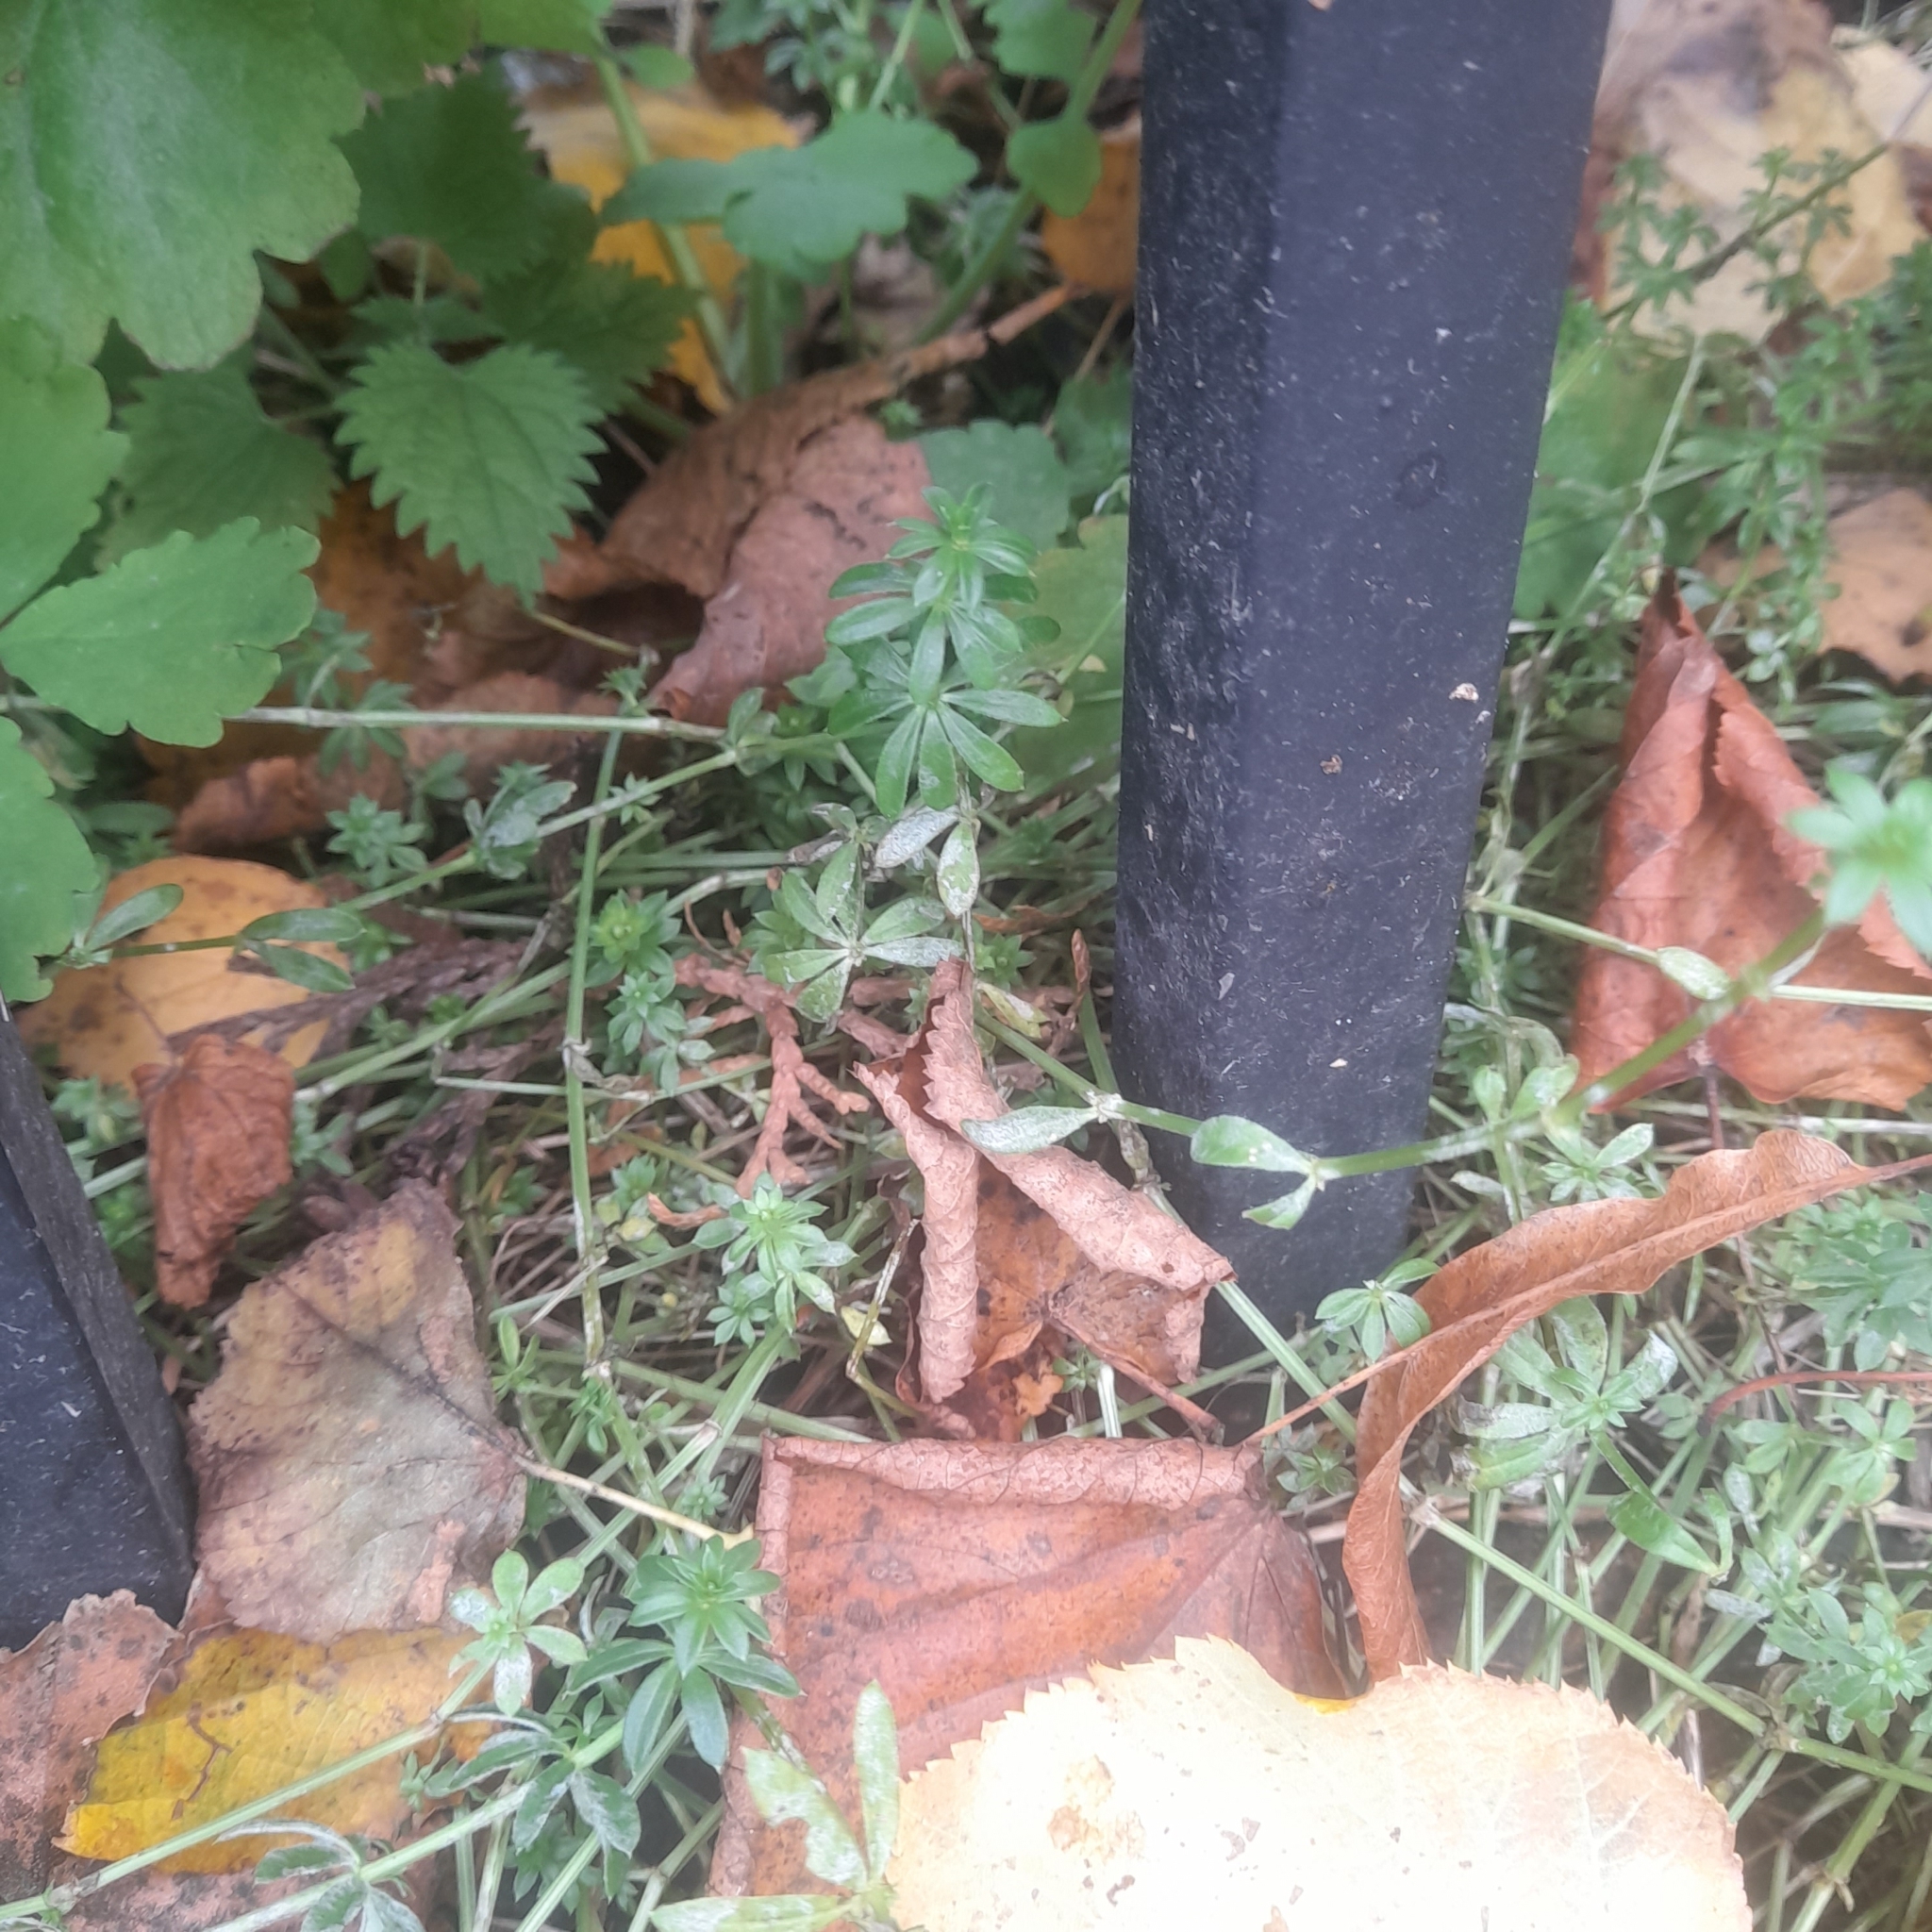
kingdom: Plantae
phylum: Tracheophyta
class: Magnoliopsida
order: Gentianales
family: Rubiaceae
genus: Galium
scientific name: Galium mollugo
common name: Hedge bedstraw
